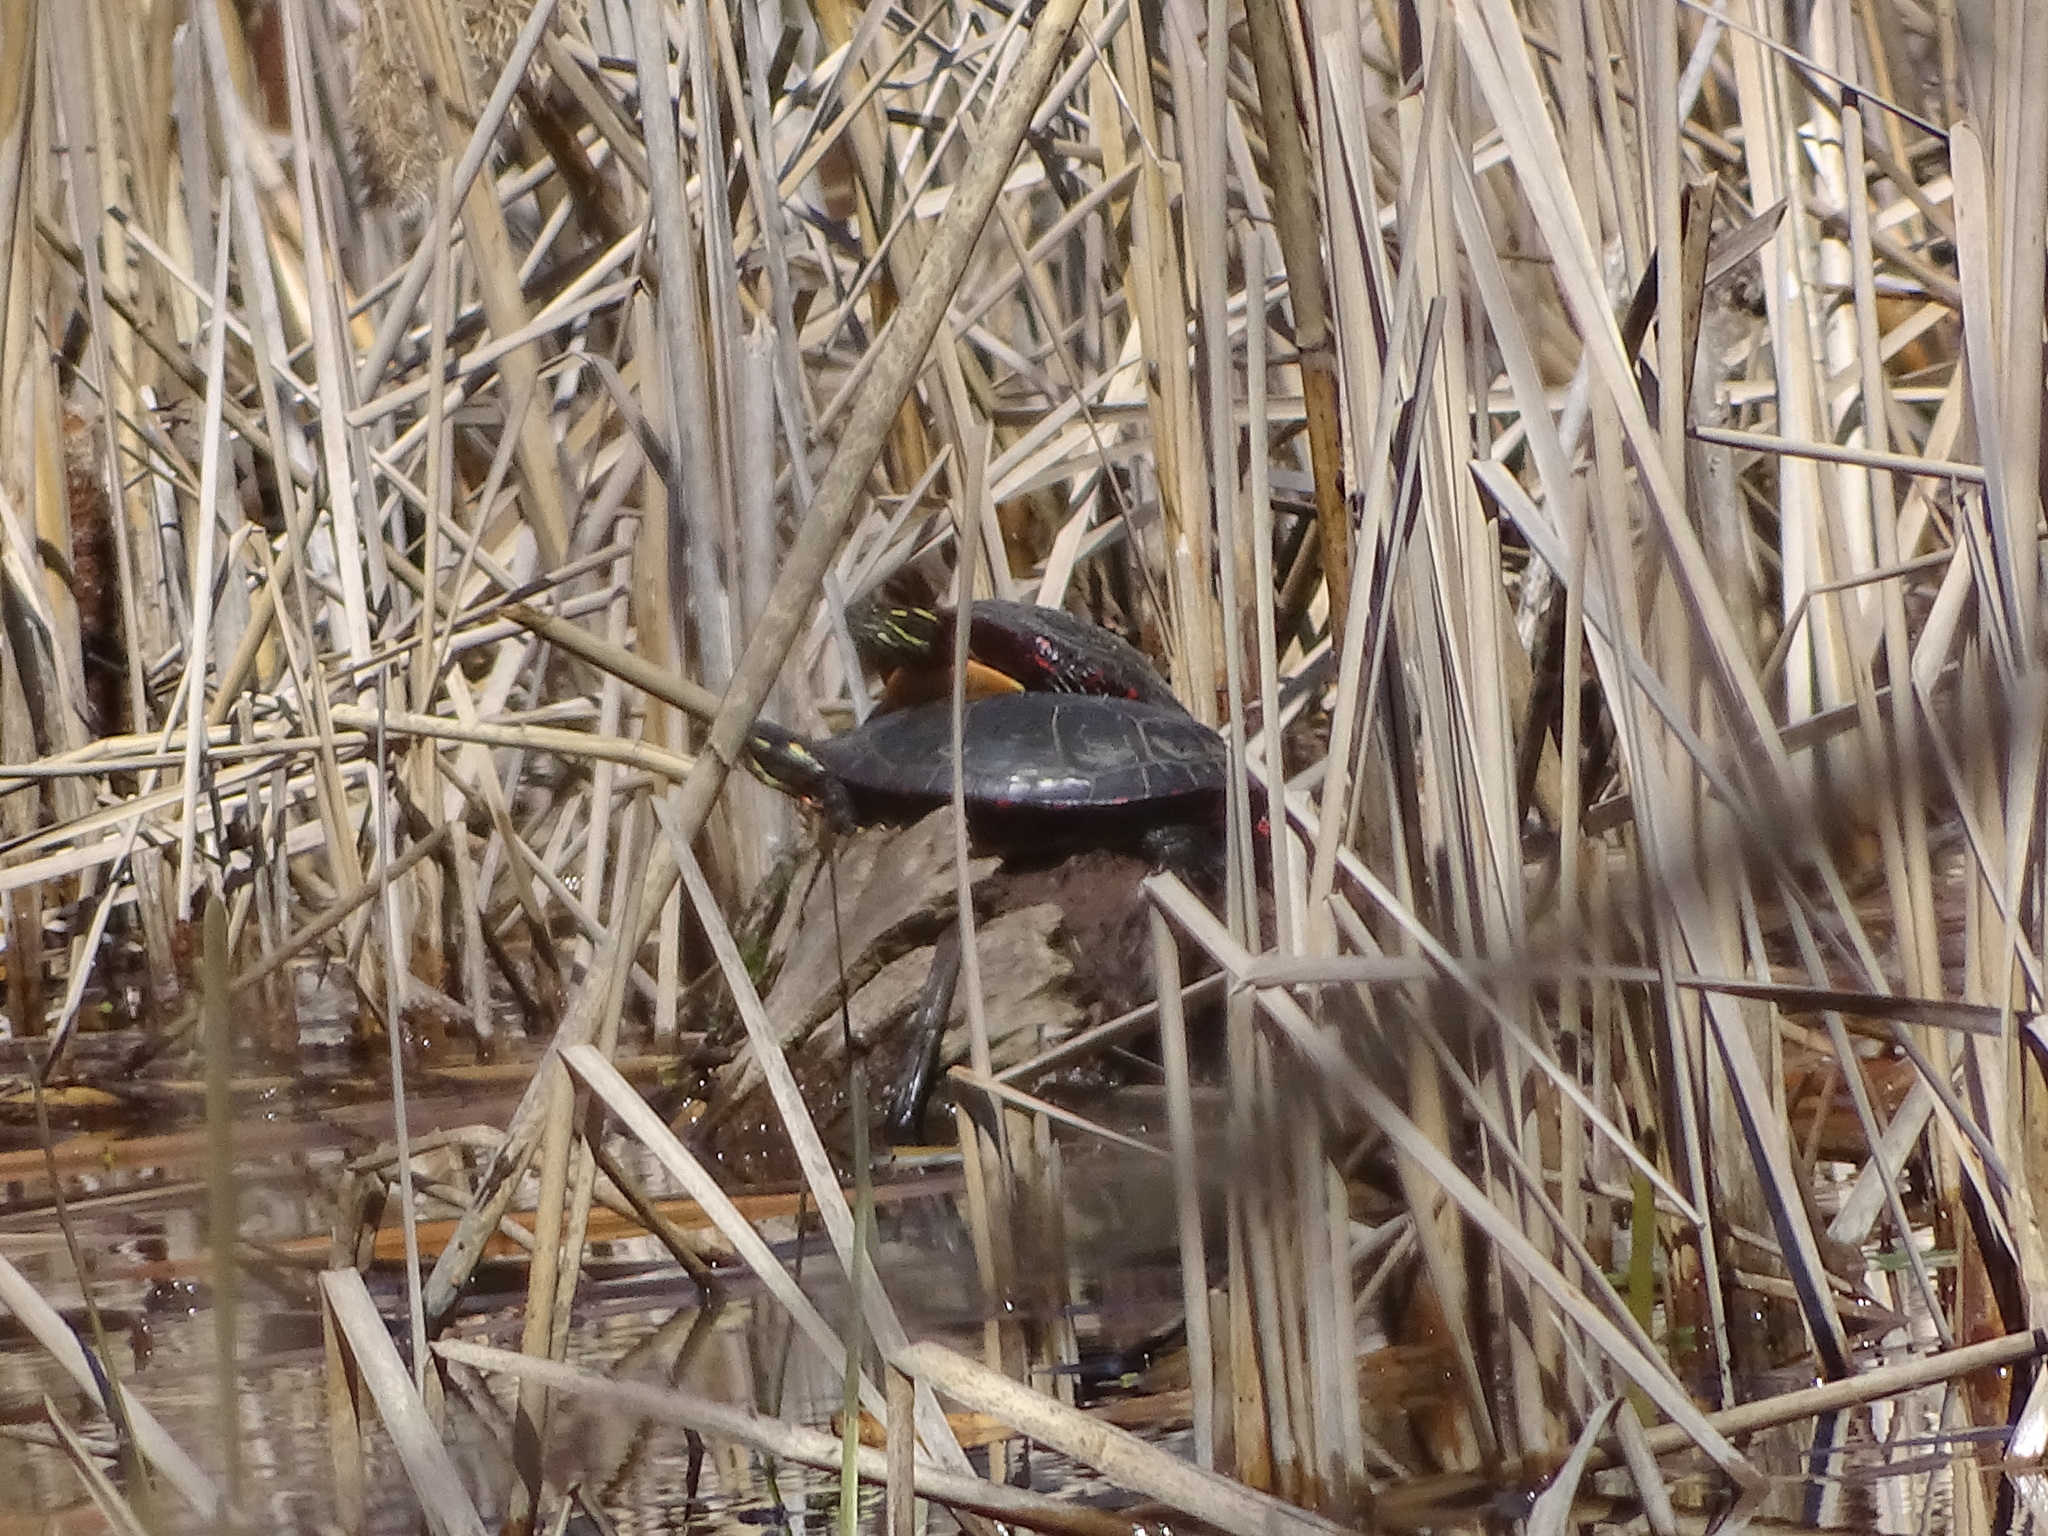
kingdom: Animalia
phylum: Chordata
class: Testudines
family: Emydidae
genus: Chrysemys
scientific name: Chrysemys picta
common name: Painted turtle
